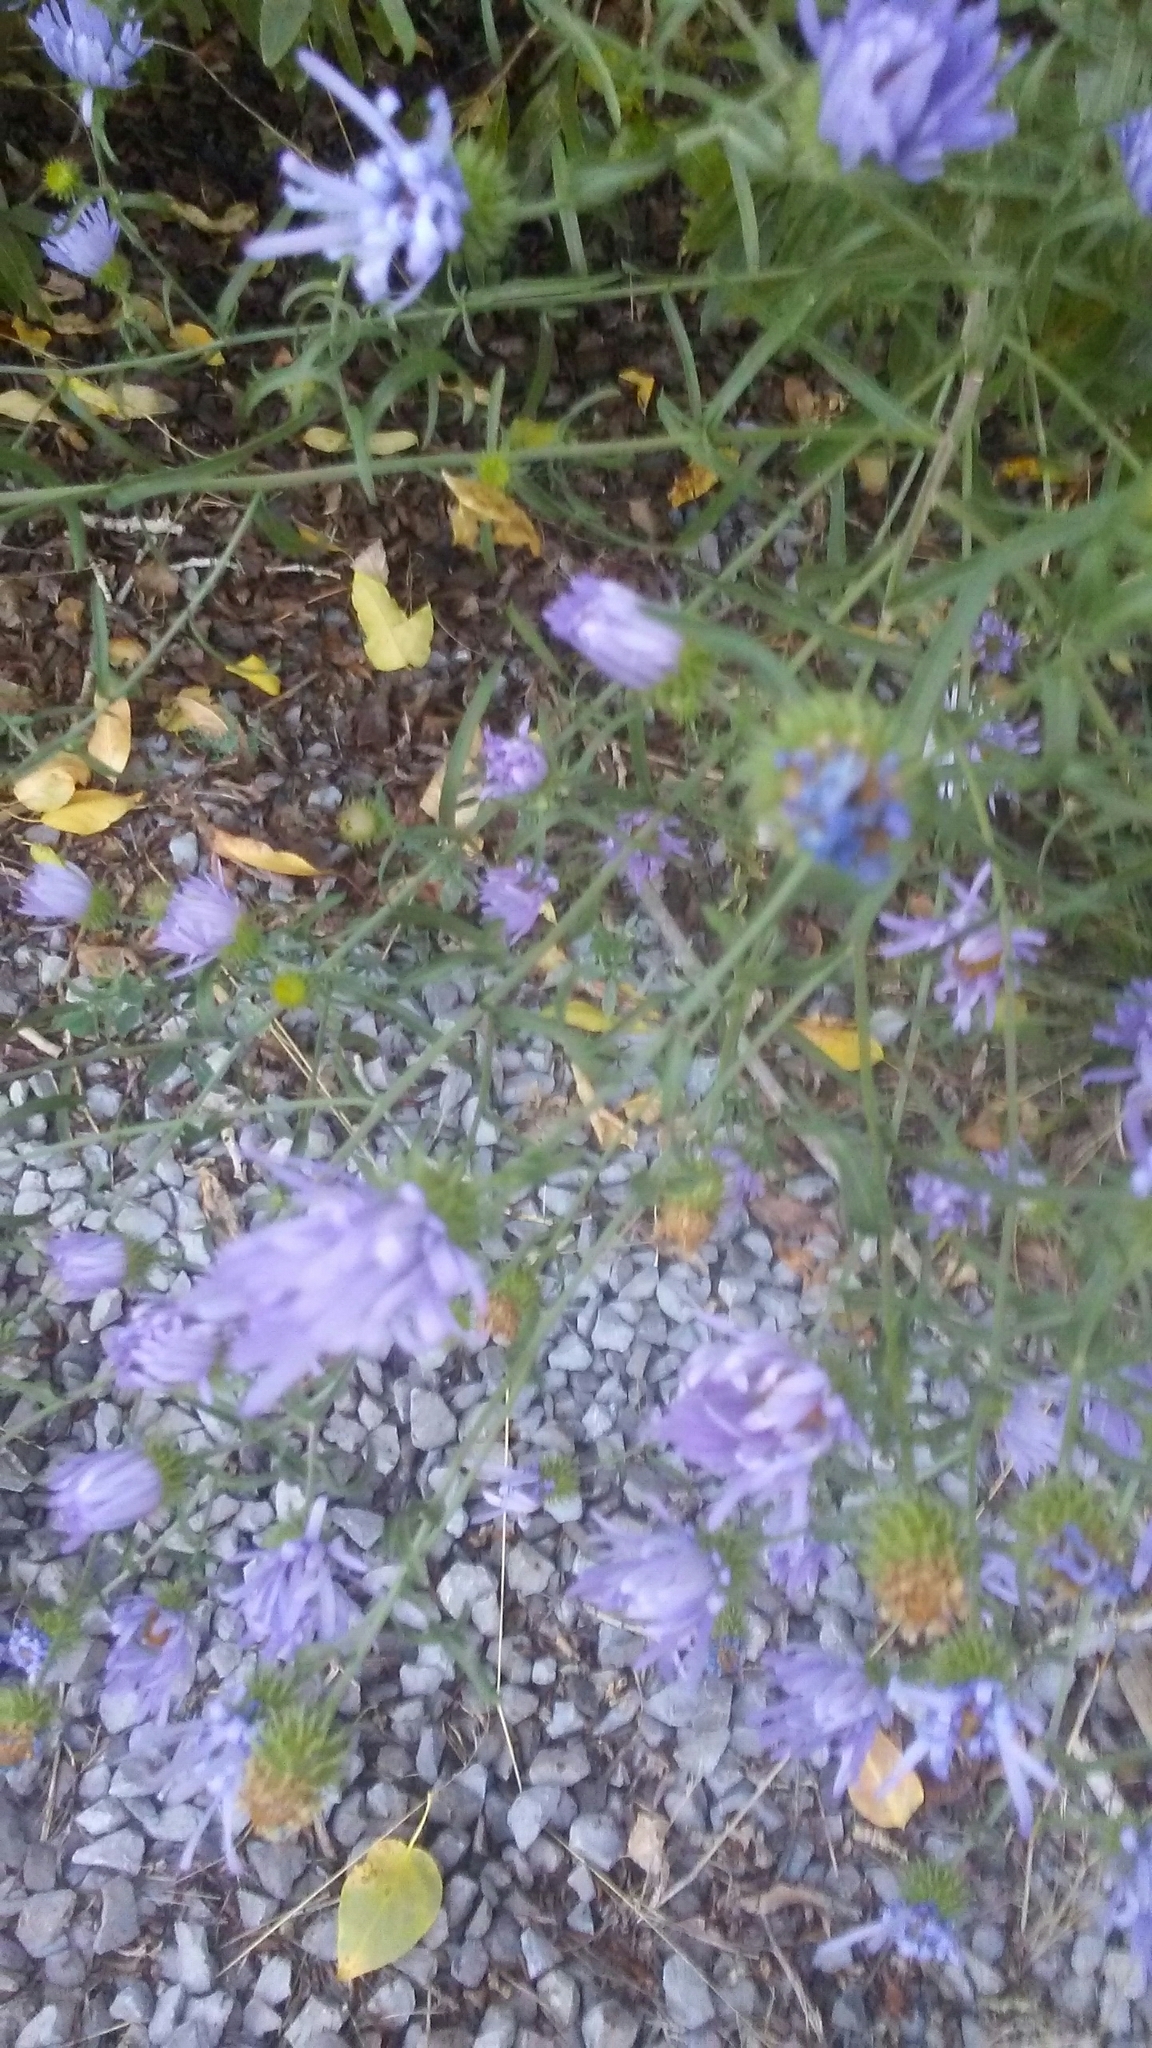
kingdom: Plantae
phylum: Tracheophyta
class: Magnoliopsida
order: Asterales
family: Asteraceae
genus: Cichorium
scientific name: Cichorium intybus
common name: Chicory
